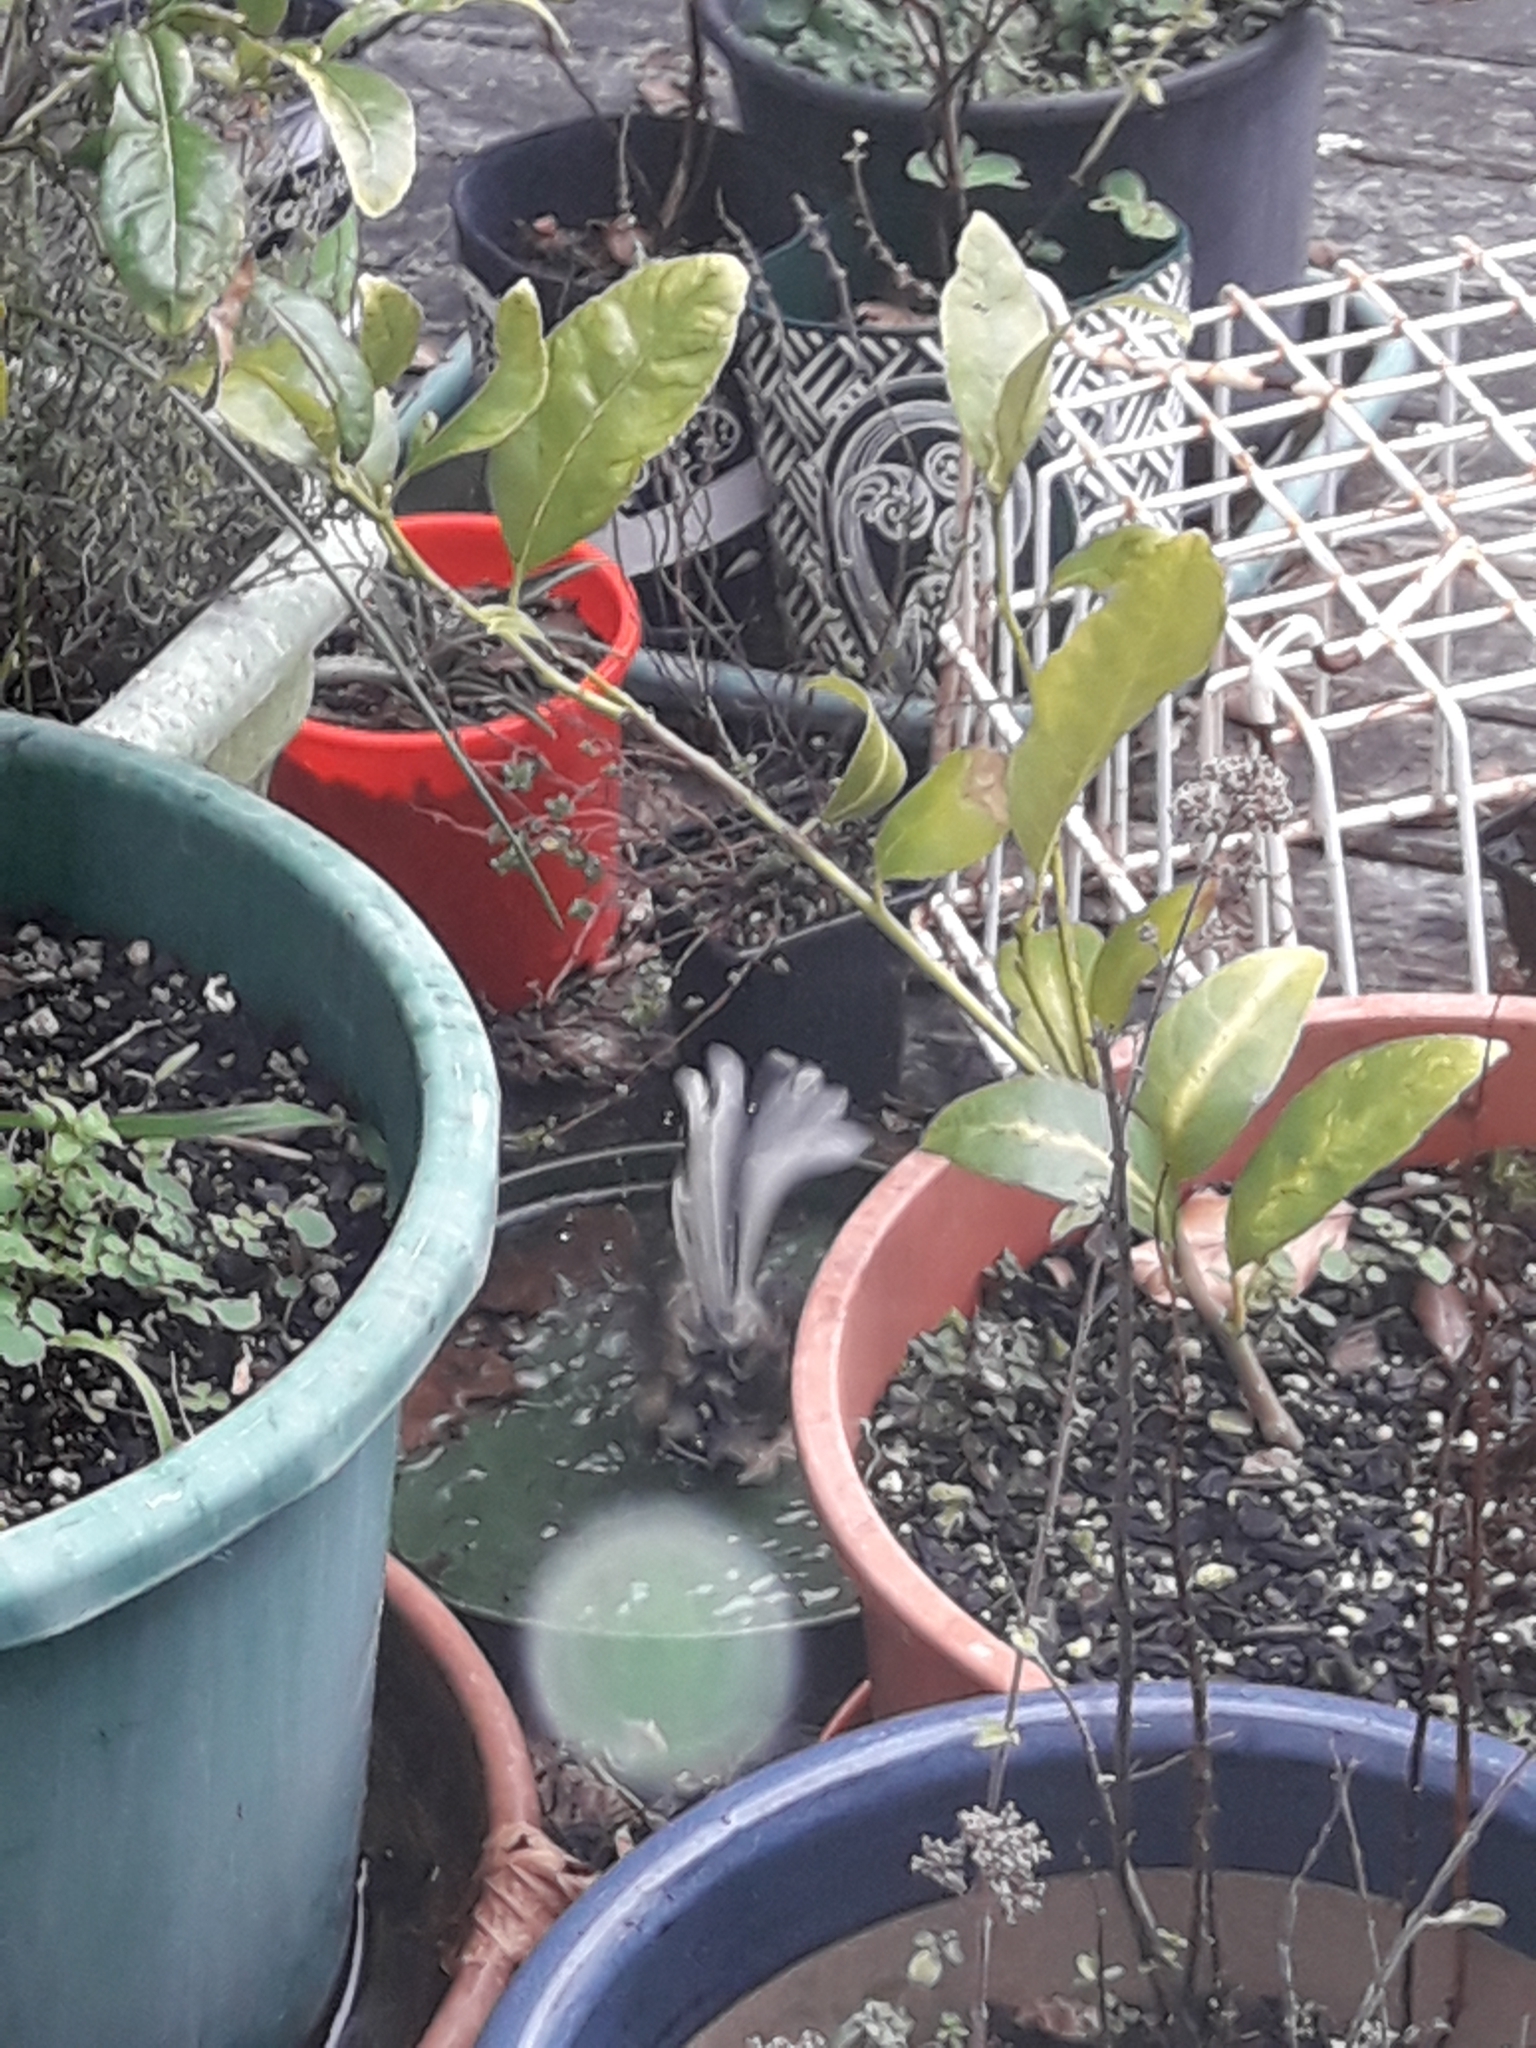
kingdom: Animalia
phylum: Chordata
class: Aves
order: Passeriformes
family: Rhipiduridae
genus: Rhipidura
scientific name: Rhipidura fuliginosa
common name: New zealand fantail
